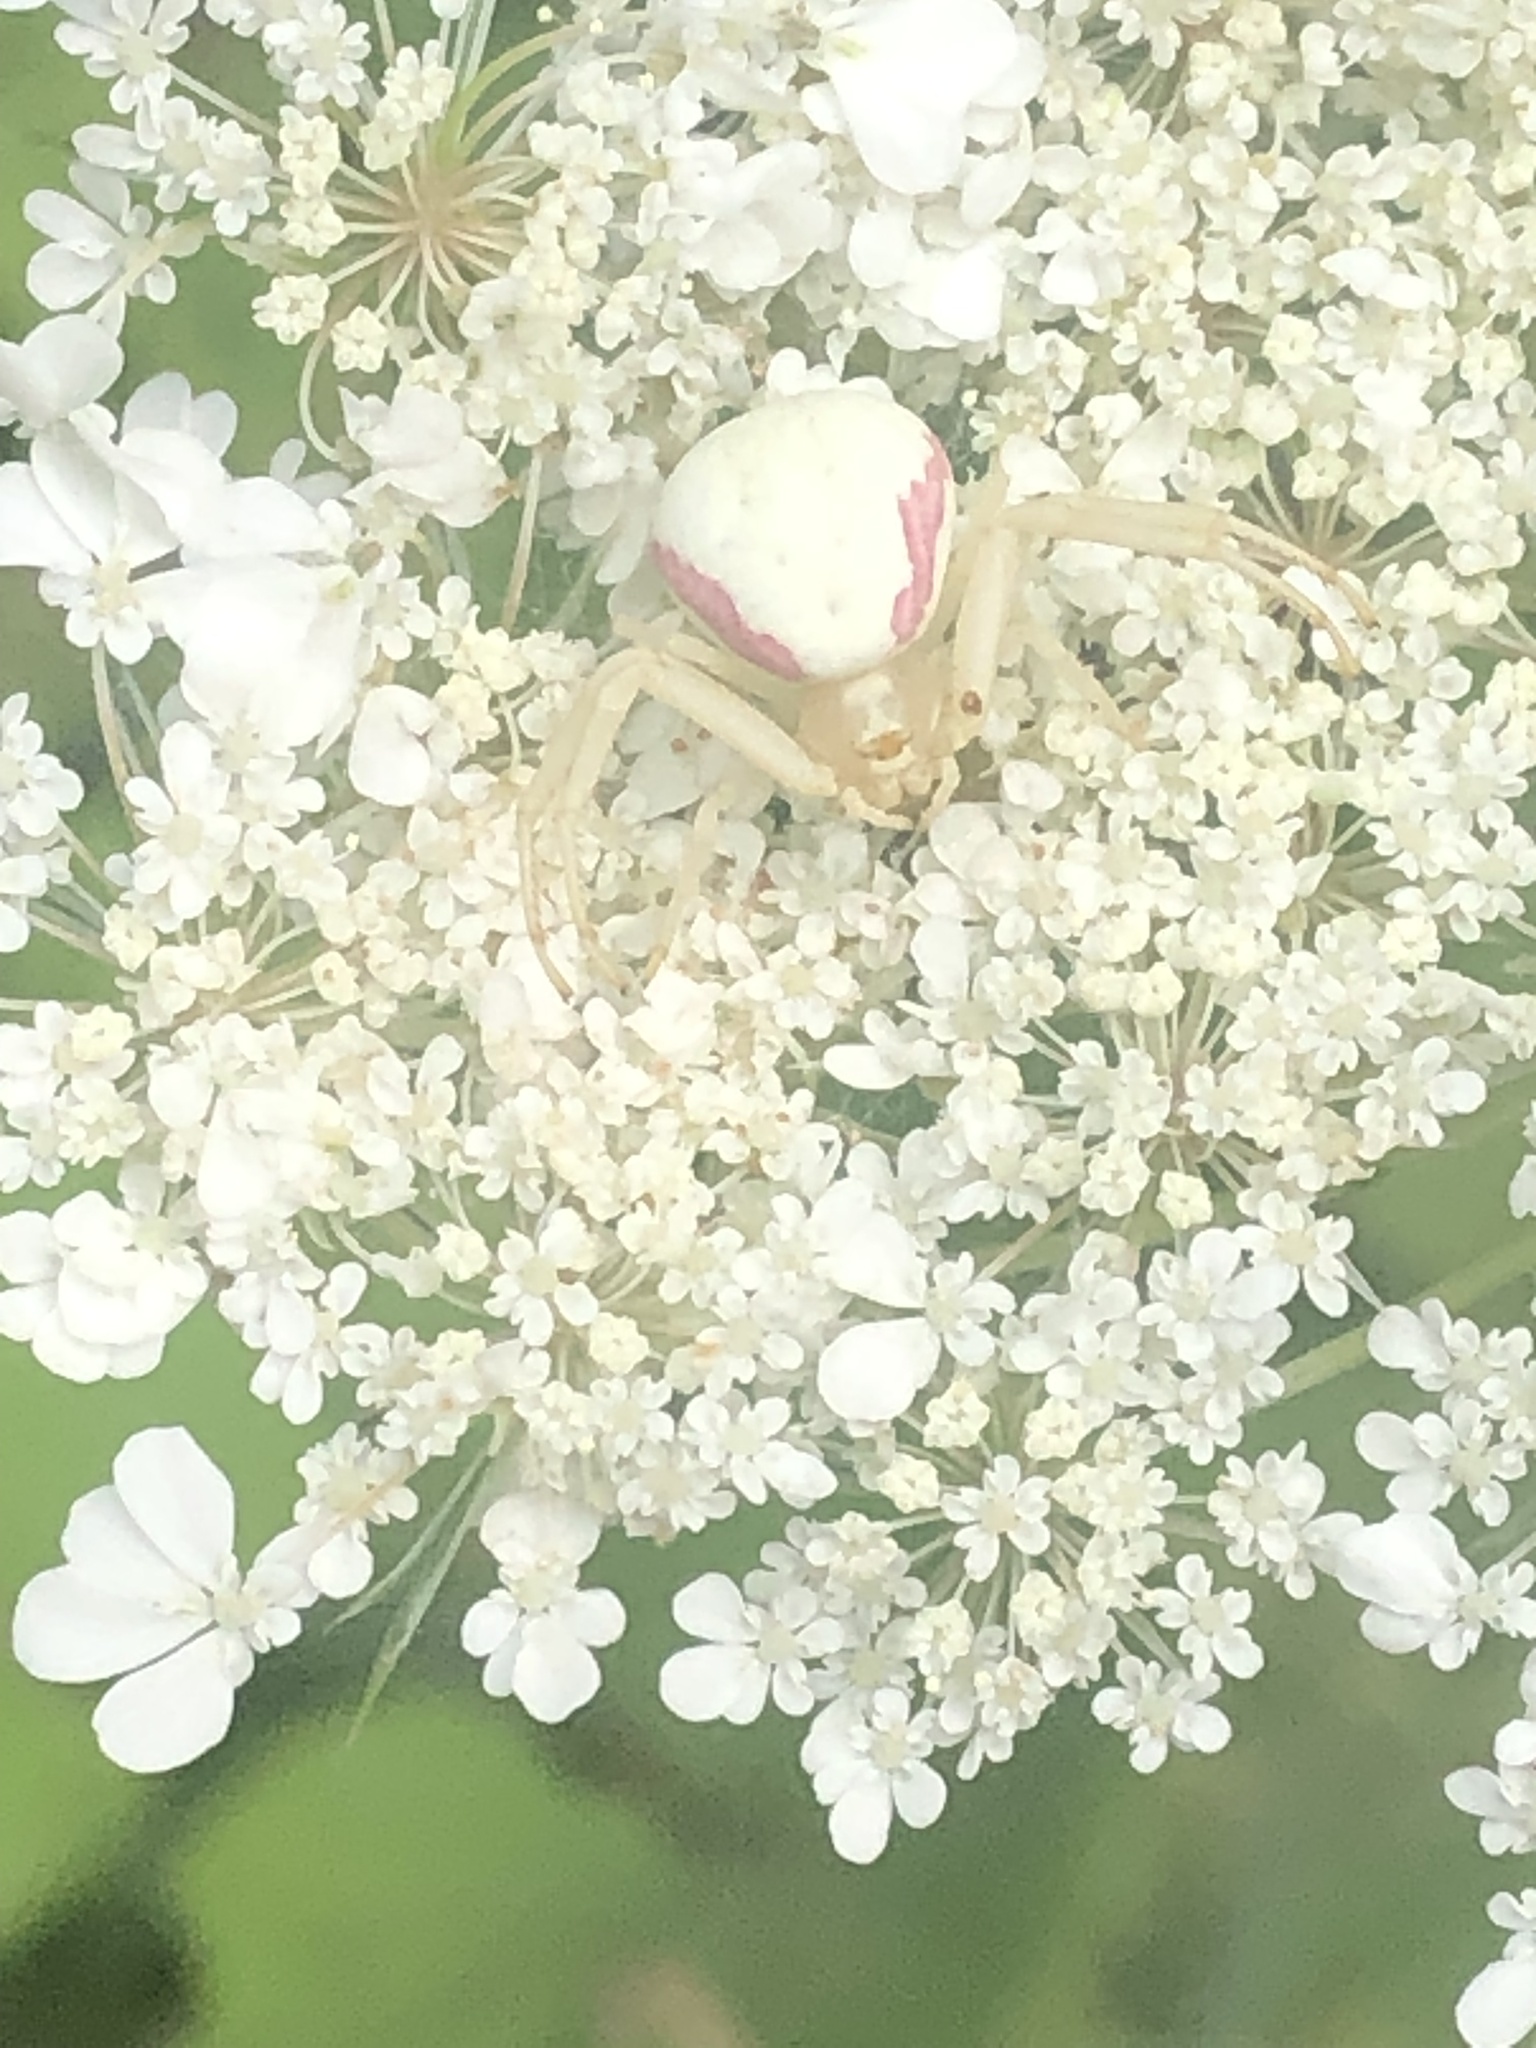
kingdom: Animalia
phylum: Arthropoda
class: Arachnida
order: Araneae
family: Thomisidae
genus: Misumena
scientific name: Misumena vatia
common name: Goldenrod crab spider
